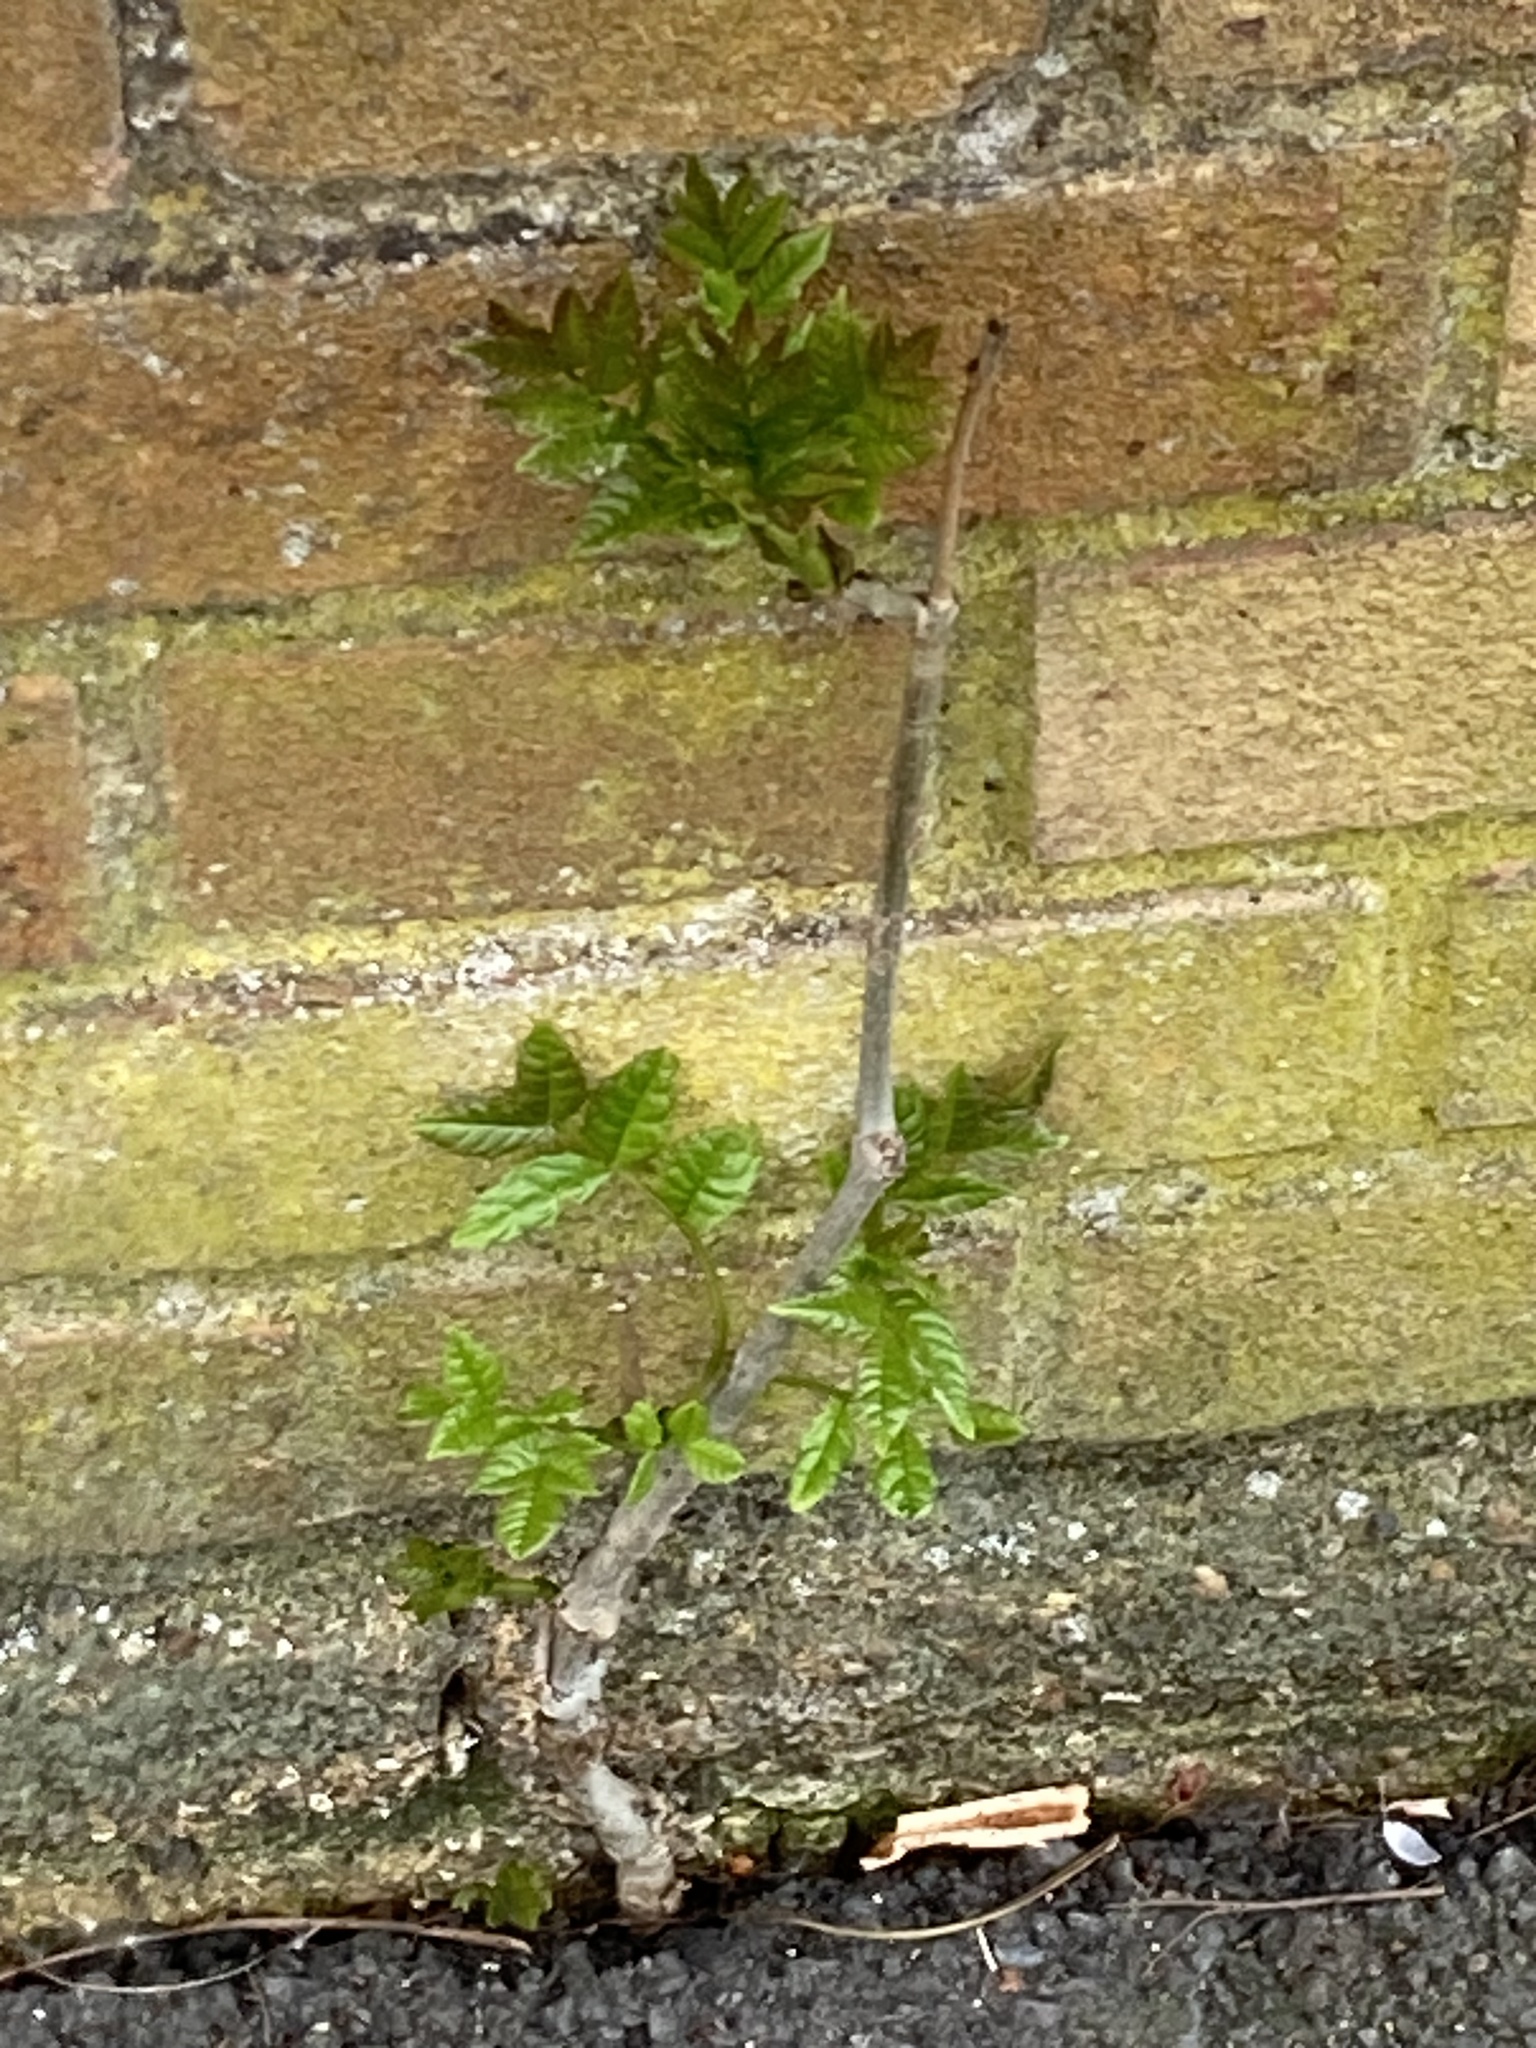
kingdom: Plantae
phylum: Tracheophyta
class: Magnoliopsida
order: Lamiales
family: Oleaceae
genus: Fraxinus
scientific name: Fraxinus excelsior
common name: European ash
